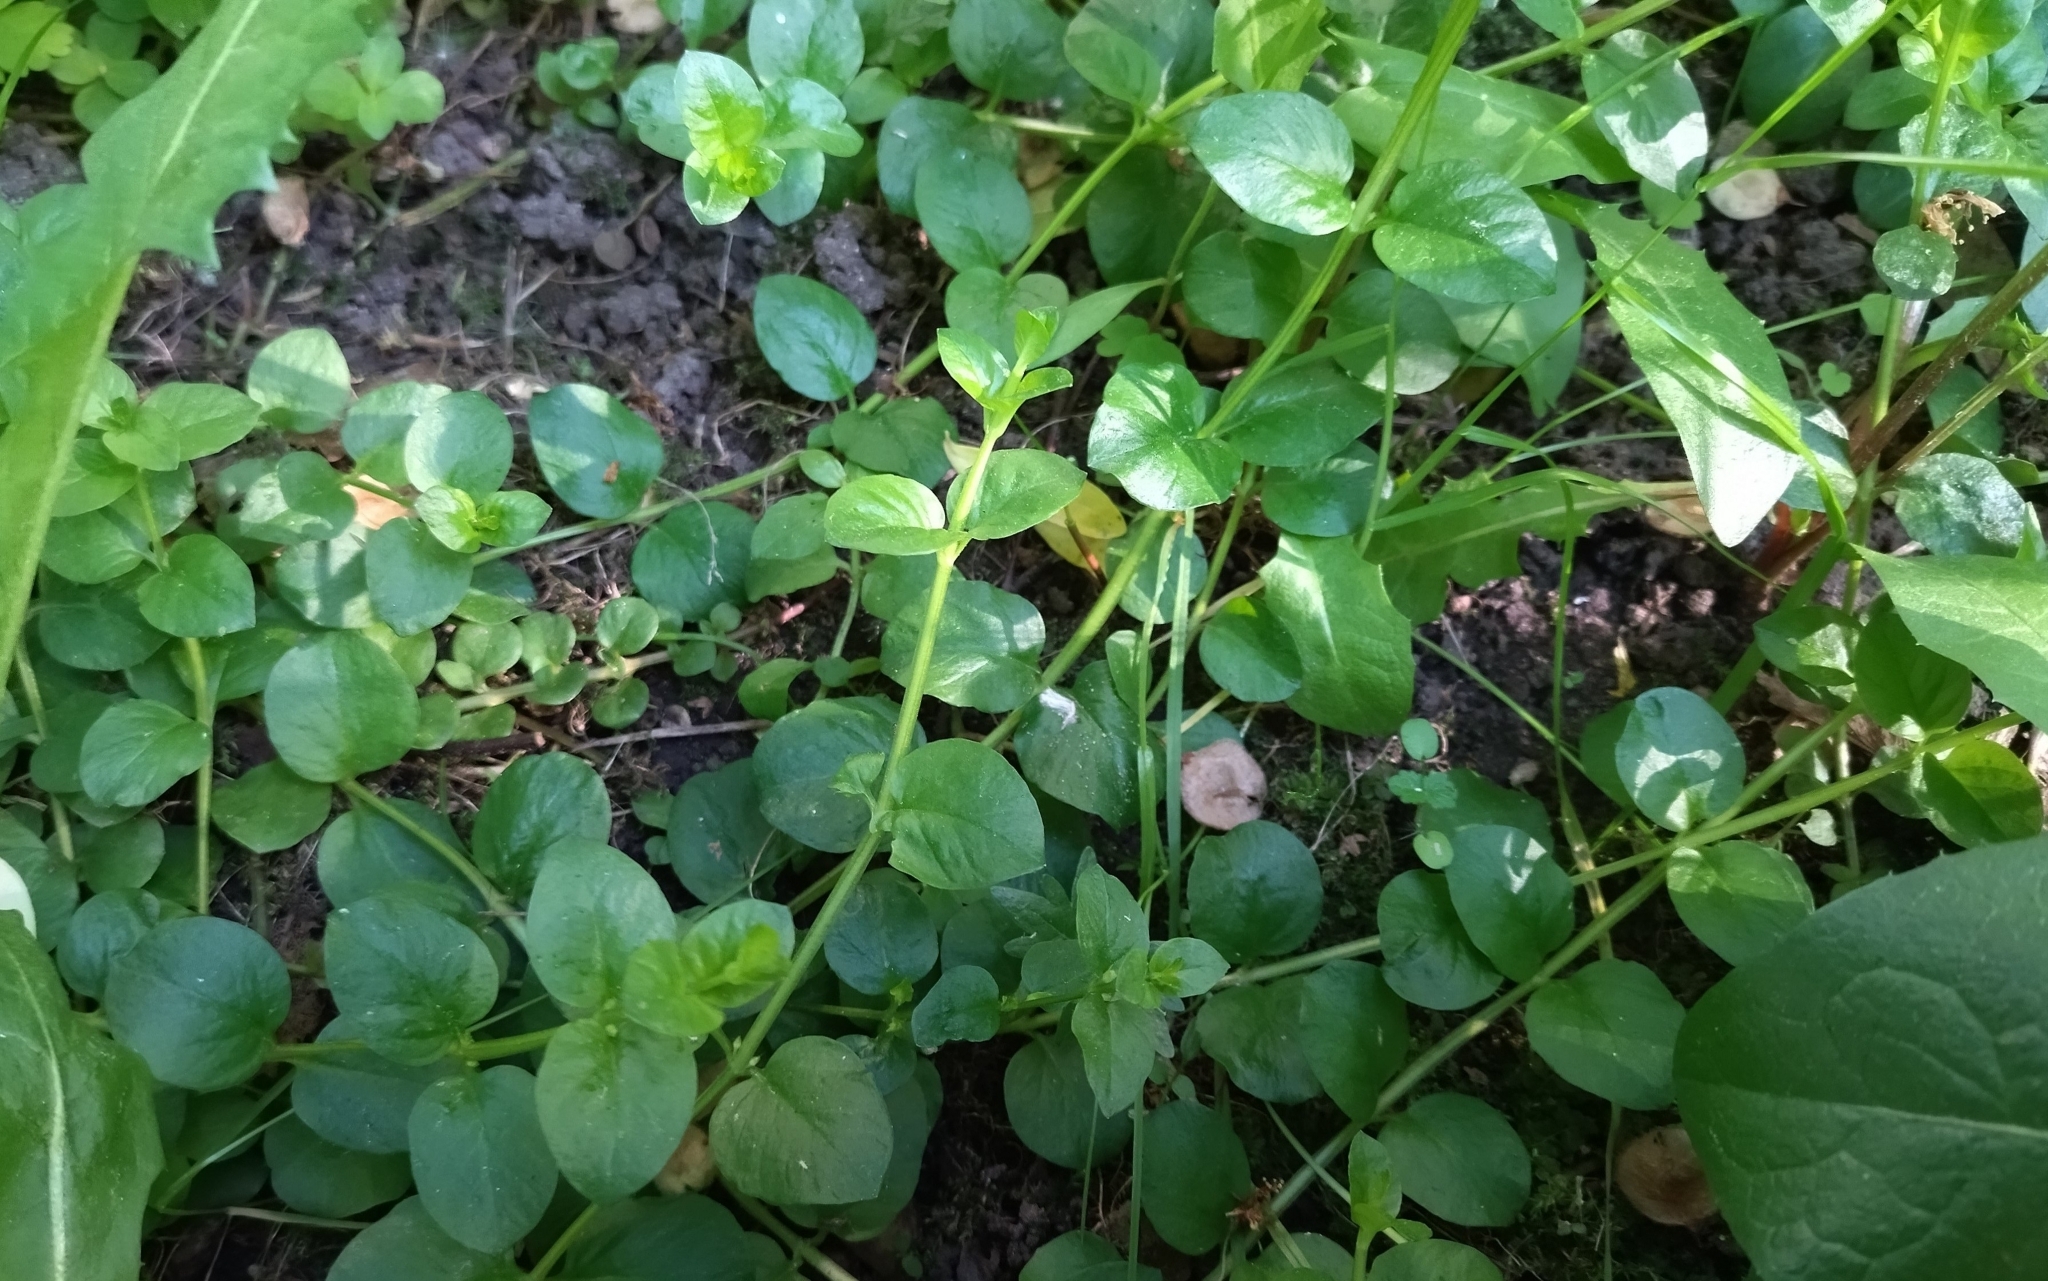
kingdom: Plantae
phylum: Tracheophyta
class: Magnoliopsida
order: Ericales
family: Primulaceae
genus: Lysimachia
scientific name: Lysimachia nummularia
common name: Moneywort
